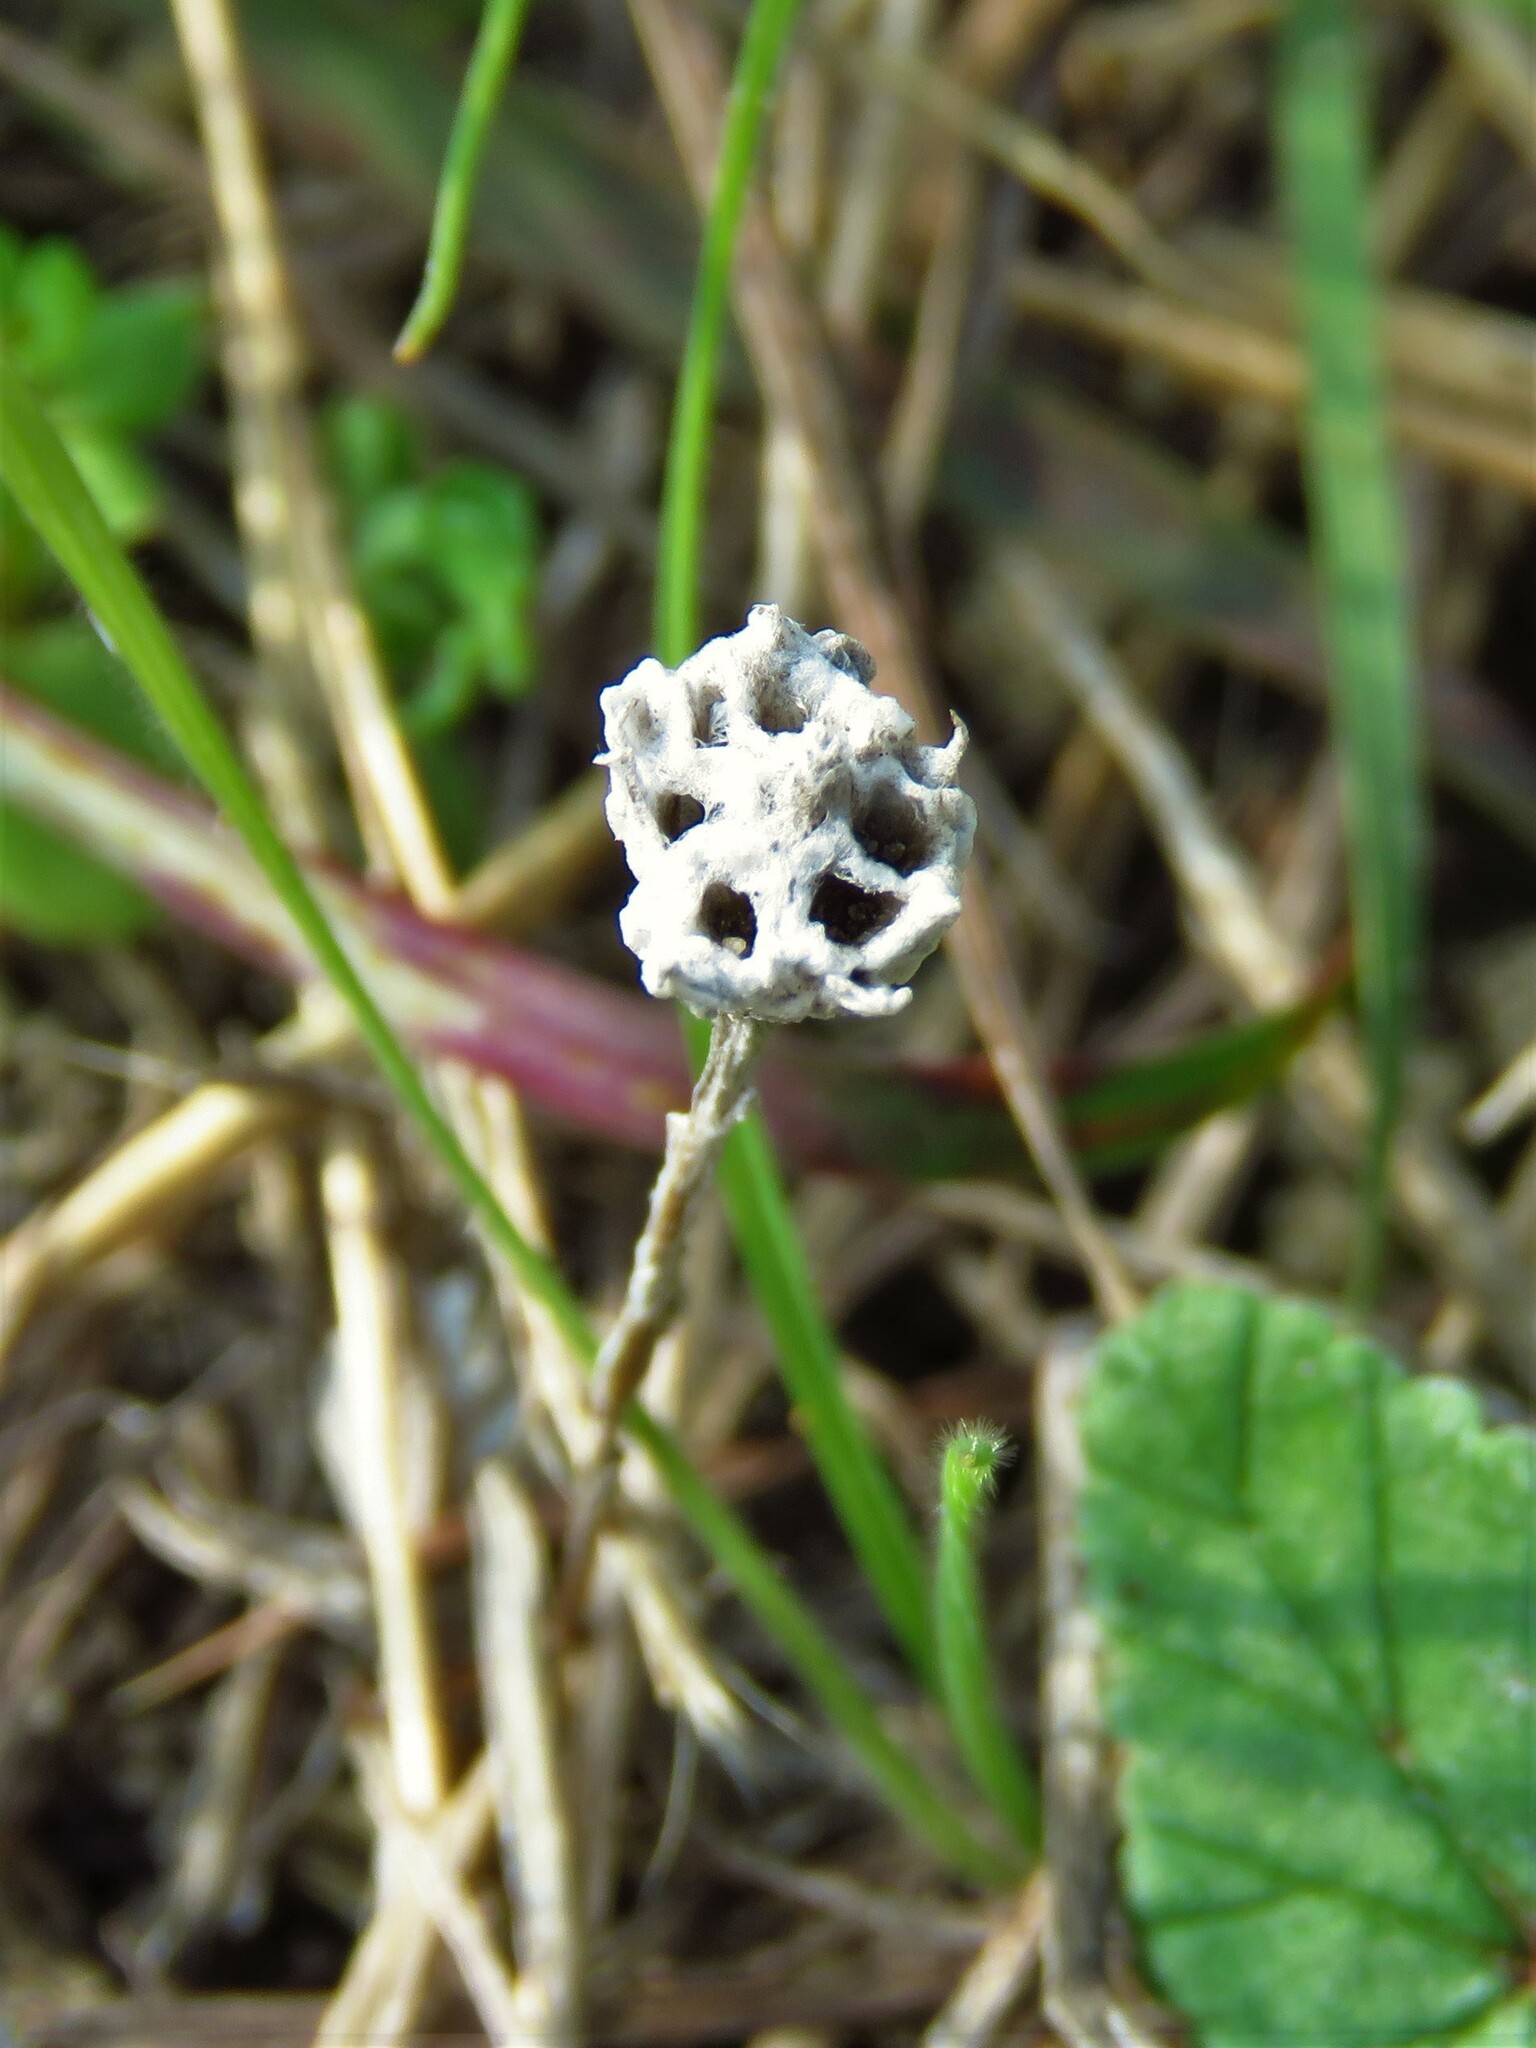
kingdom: Plantae
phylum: Tracheophyta
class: Magnoliopsida
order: Asterales
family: Asteraceae
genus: Diaperia
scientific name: Diaperia prolifera
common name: Big-head rabbit-tobacco
